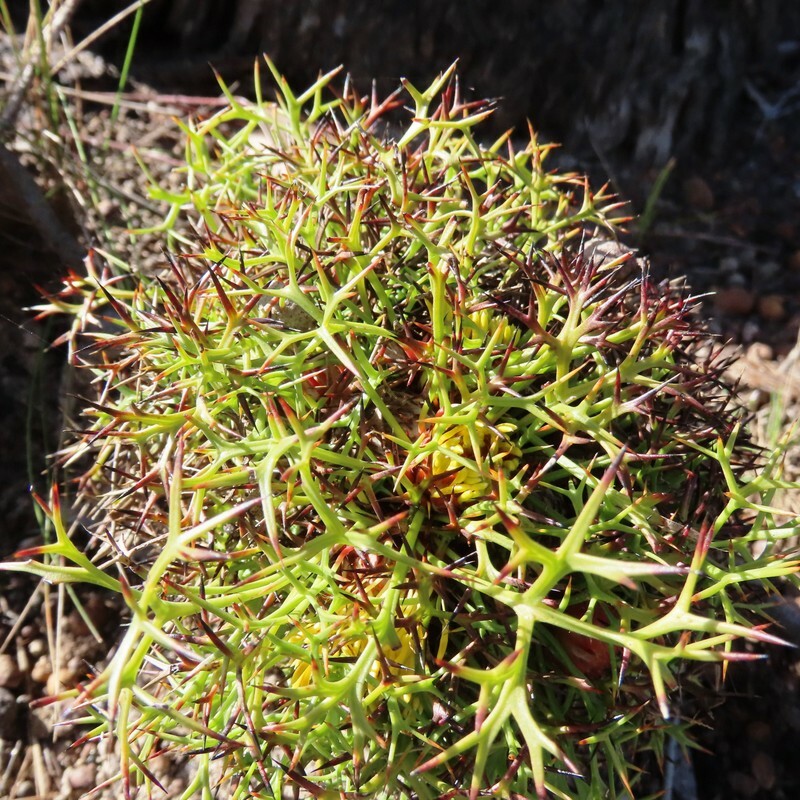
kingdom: Plantae
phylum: Tracheophyta
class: Magnoliopsida
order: Proteales
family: Proteaceae
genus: Isopogon
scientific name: Isopogon ceratophyllus
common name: Horny cone-bush
